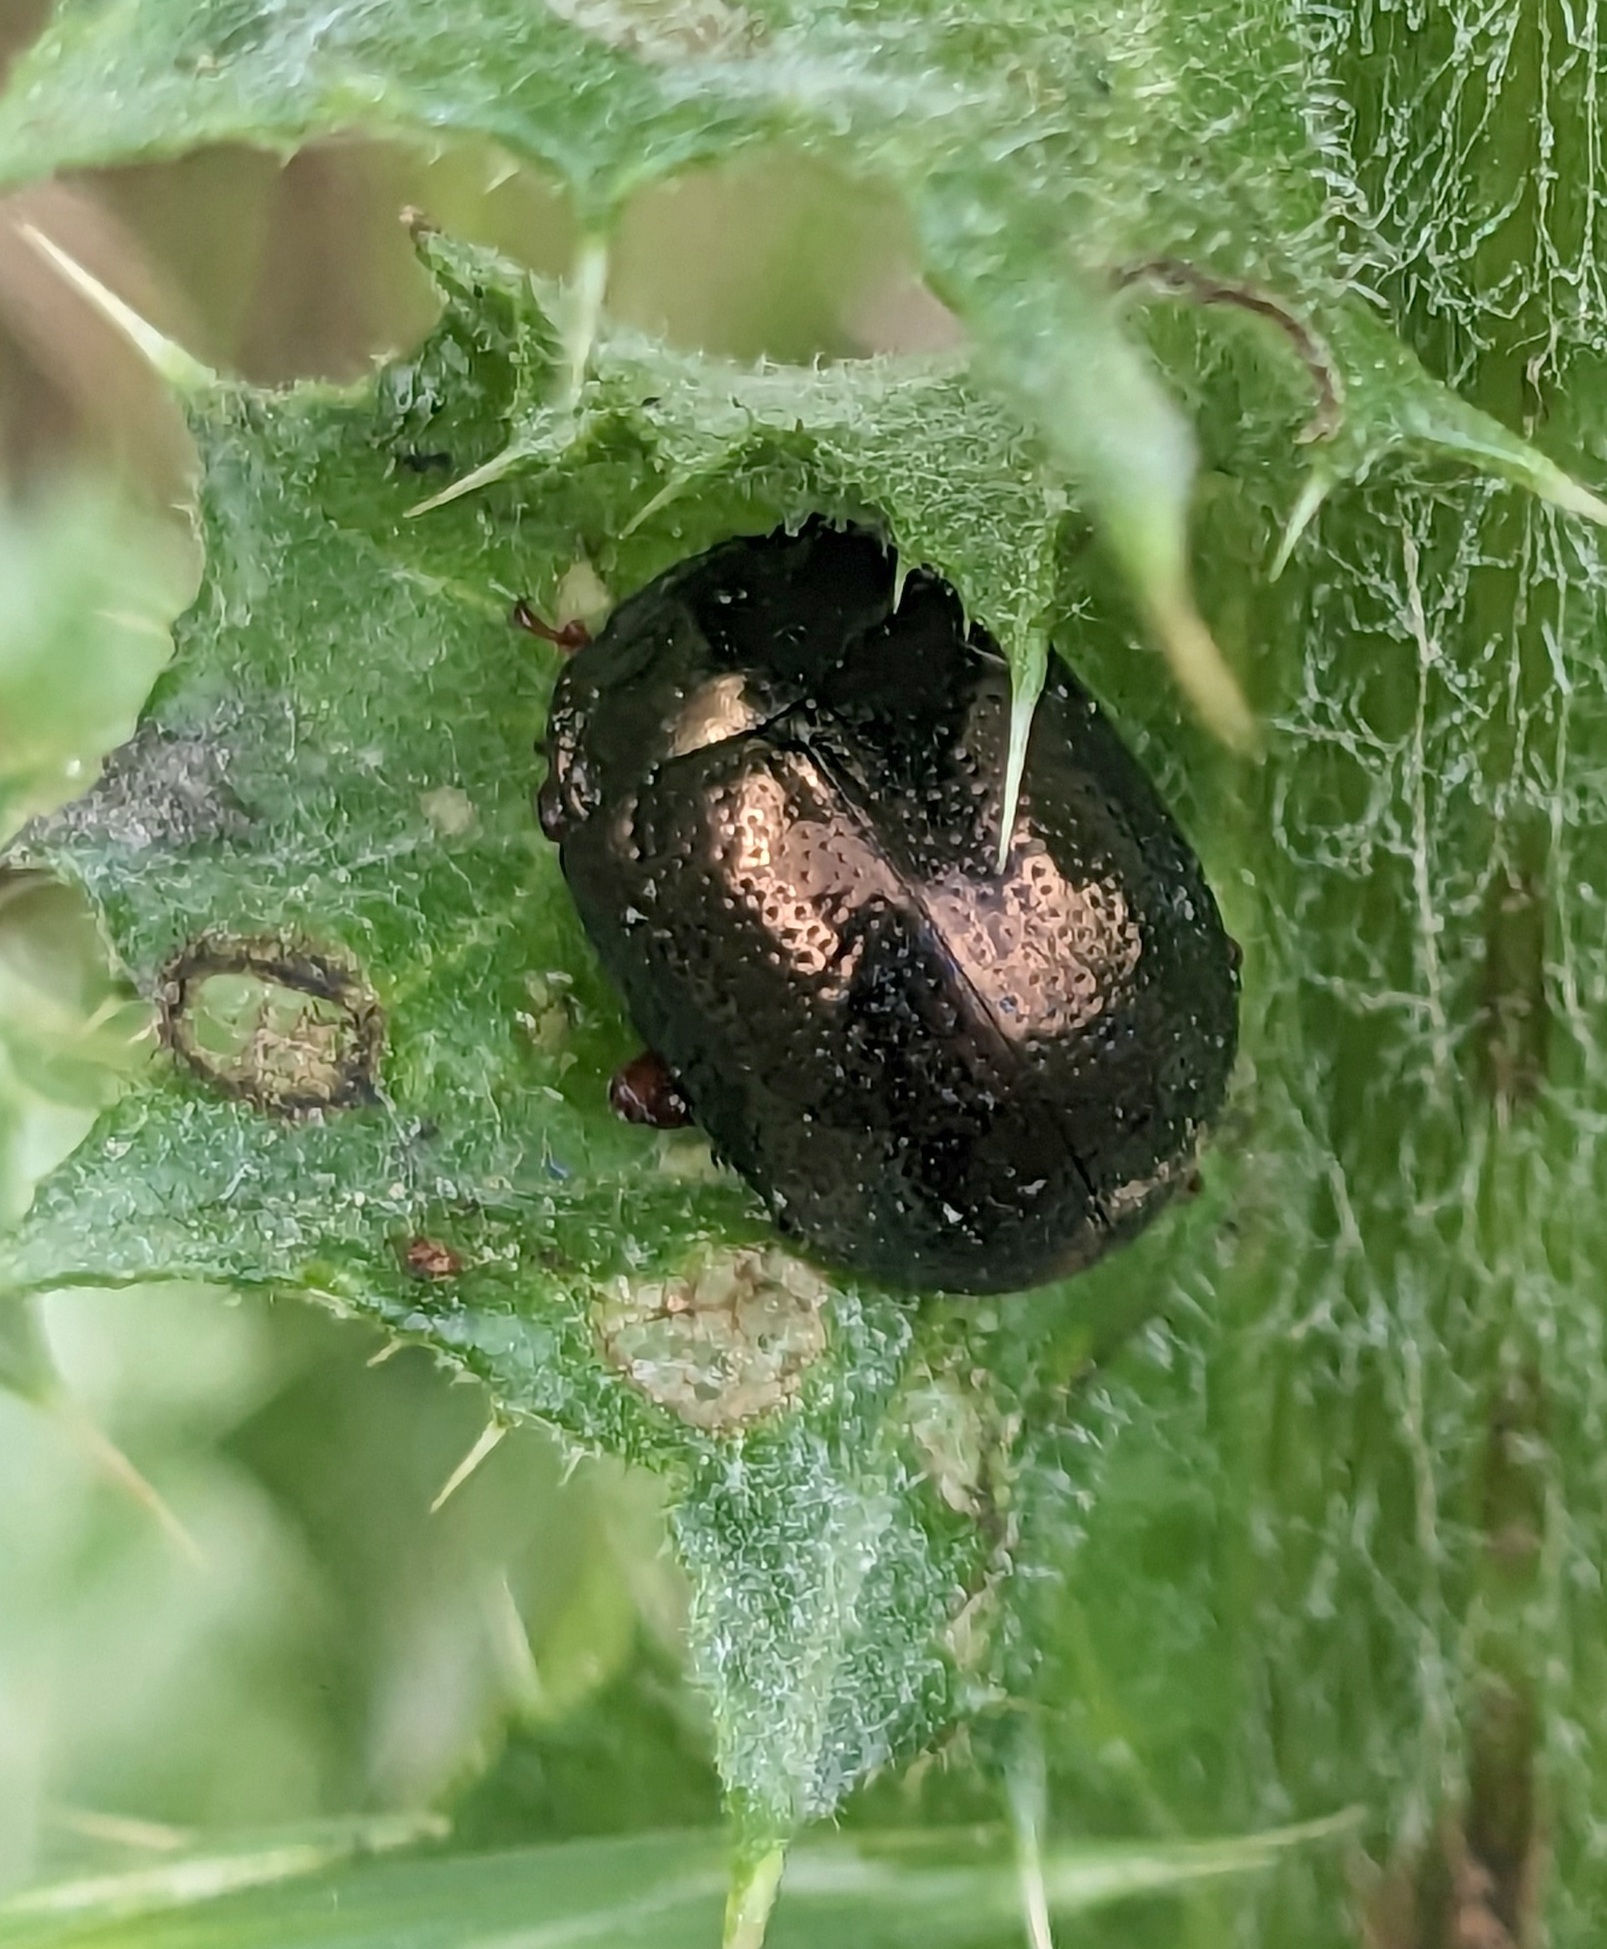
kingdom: Animalia
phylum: Arthropoda
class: Insecta
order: Coleoptera
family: Chrysomelidae
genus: Chrysolina
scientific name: Chrysolina bankii
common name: Leaf beetle
